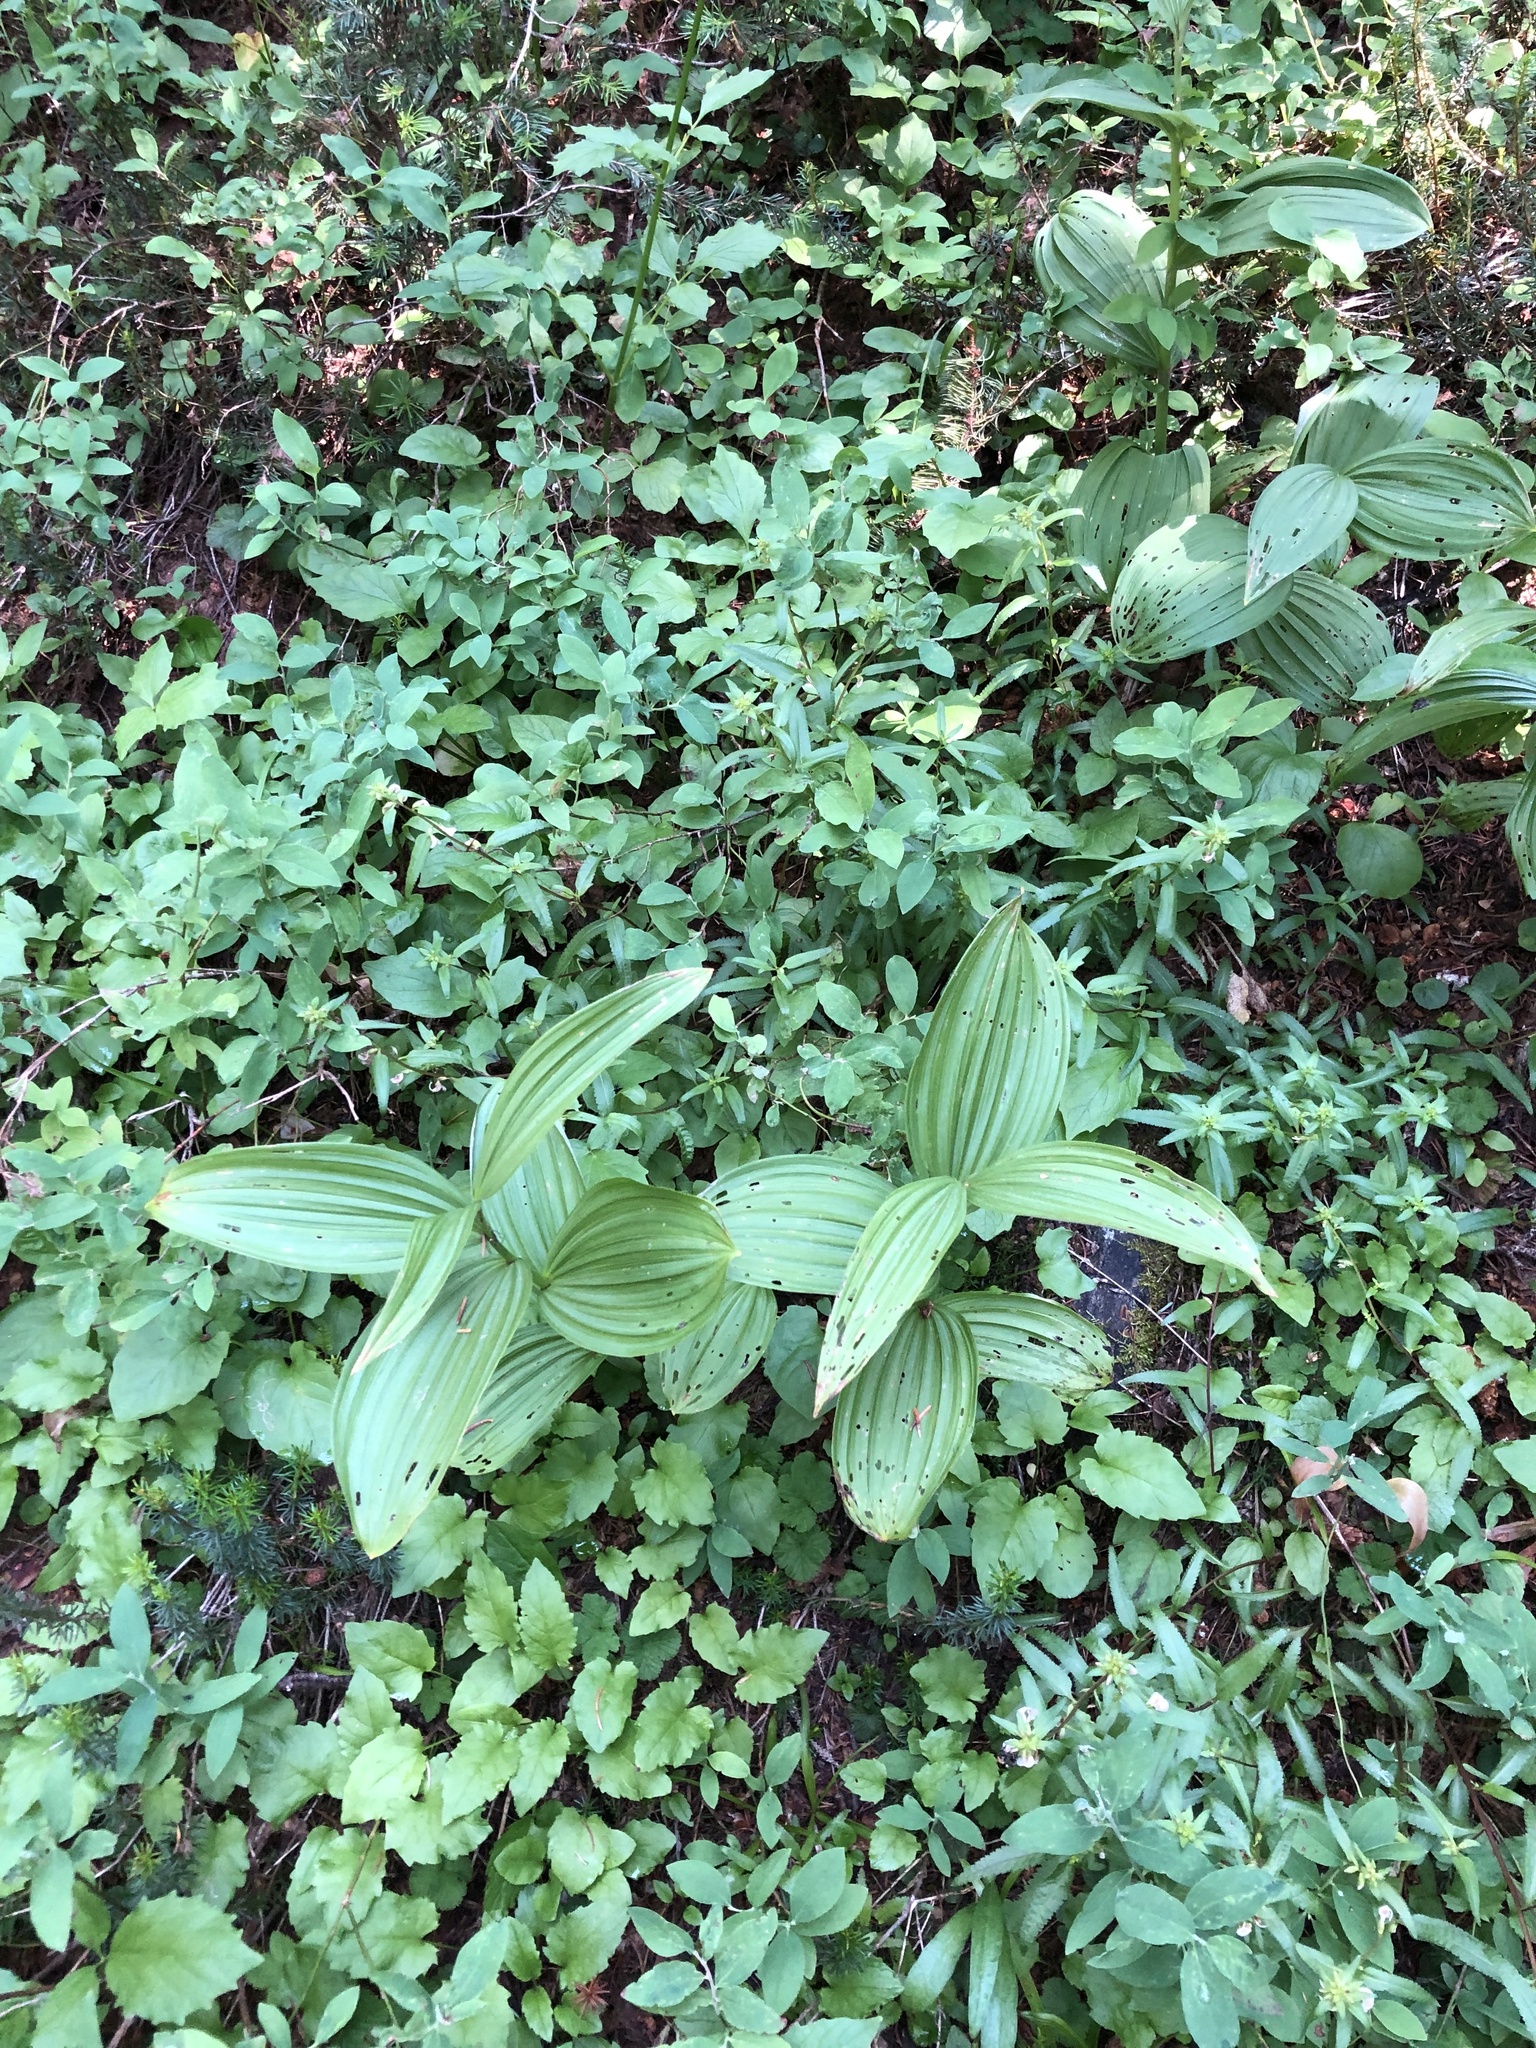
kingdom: Plantae
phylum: Tracheophyta
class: Liliopsida
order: Liliales
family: Melanthiaceae
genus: Veratrum
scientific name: Veratrum viride
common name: American false hellebore
